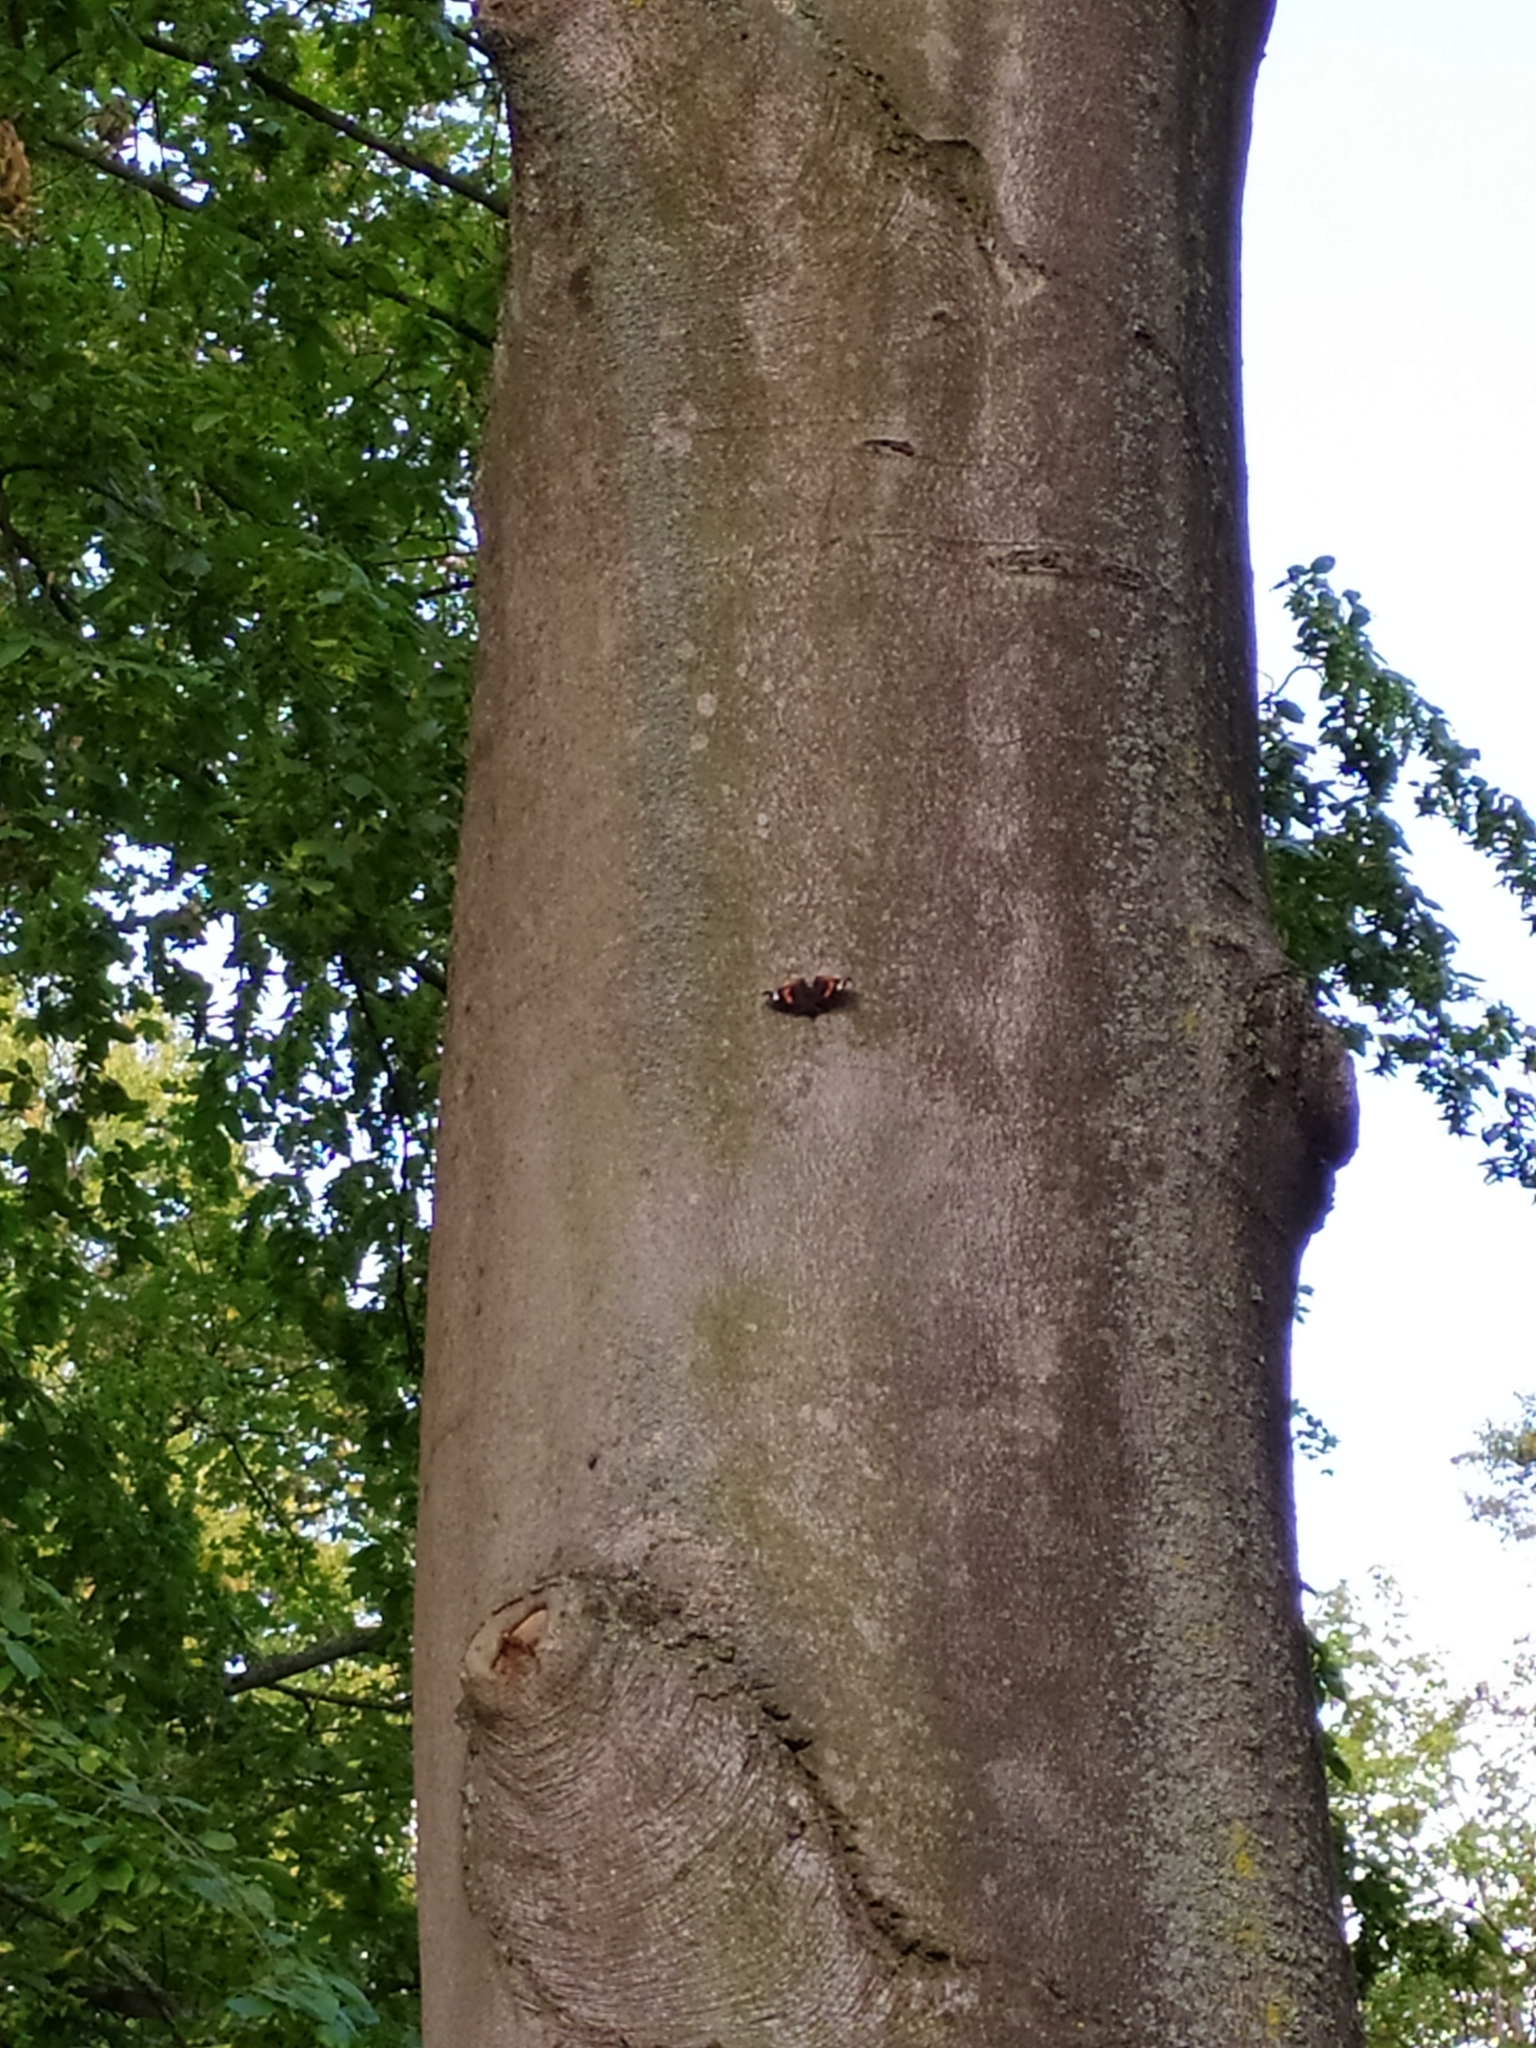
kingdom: Animalia
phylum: Arthropoda
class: Insecta
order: Lepidoptera
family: Nymphalidae
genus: Vanessa
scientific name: Vanessa atalanta
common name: Red admiral
